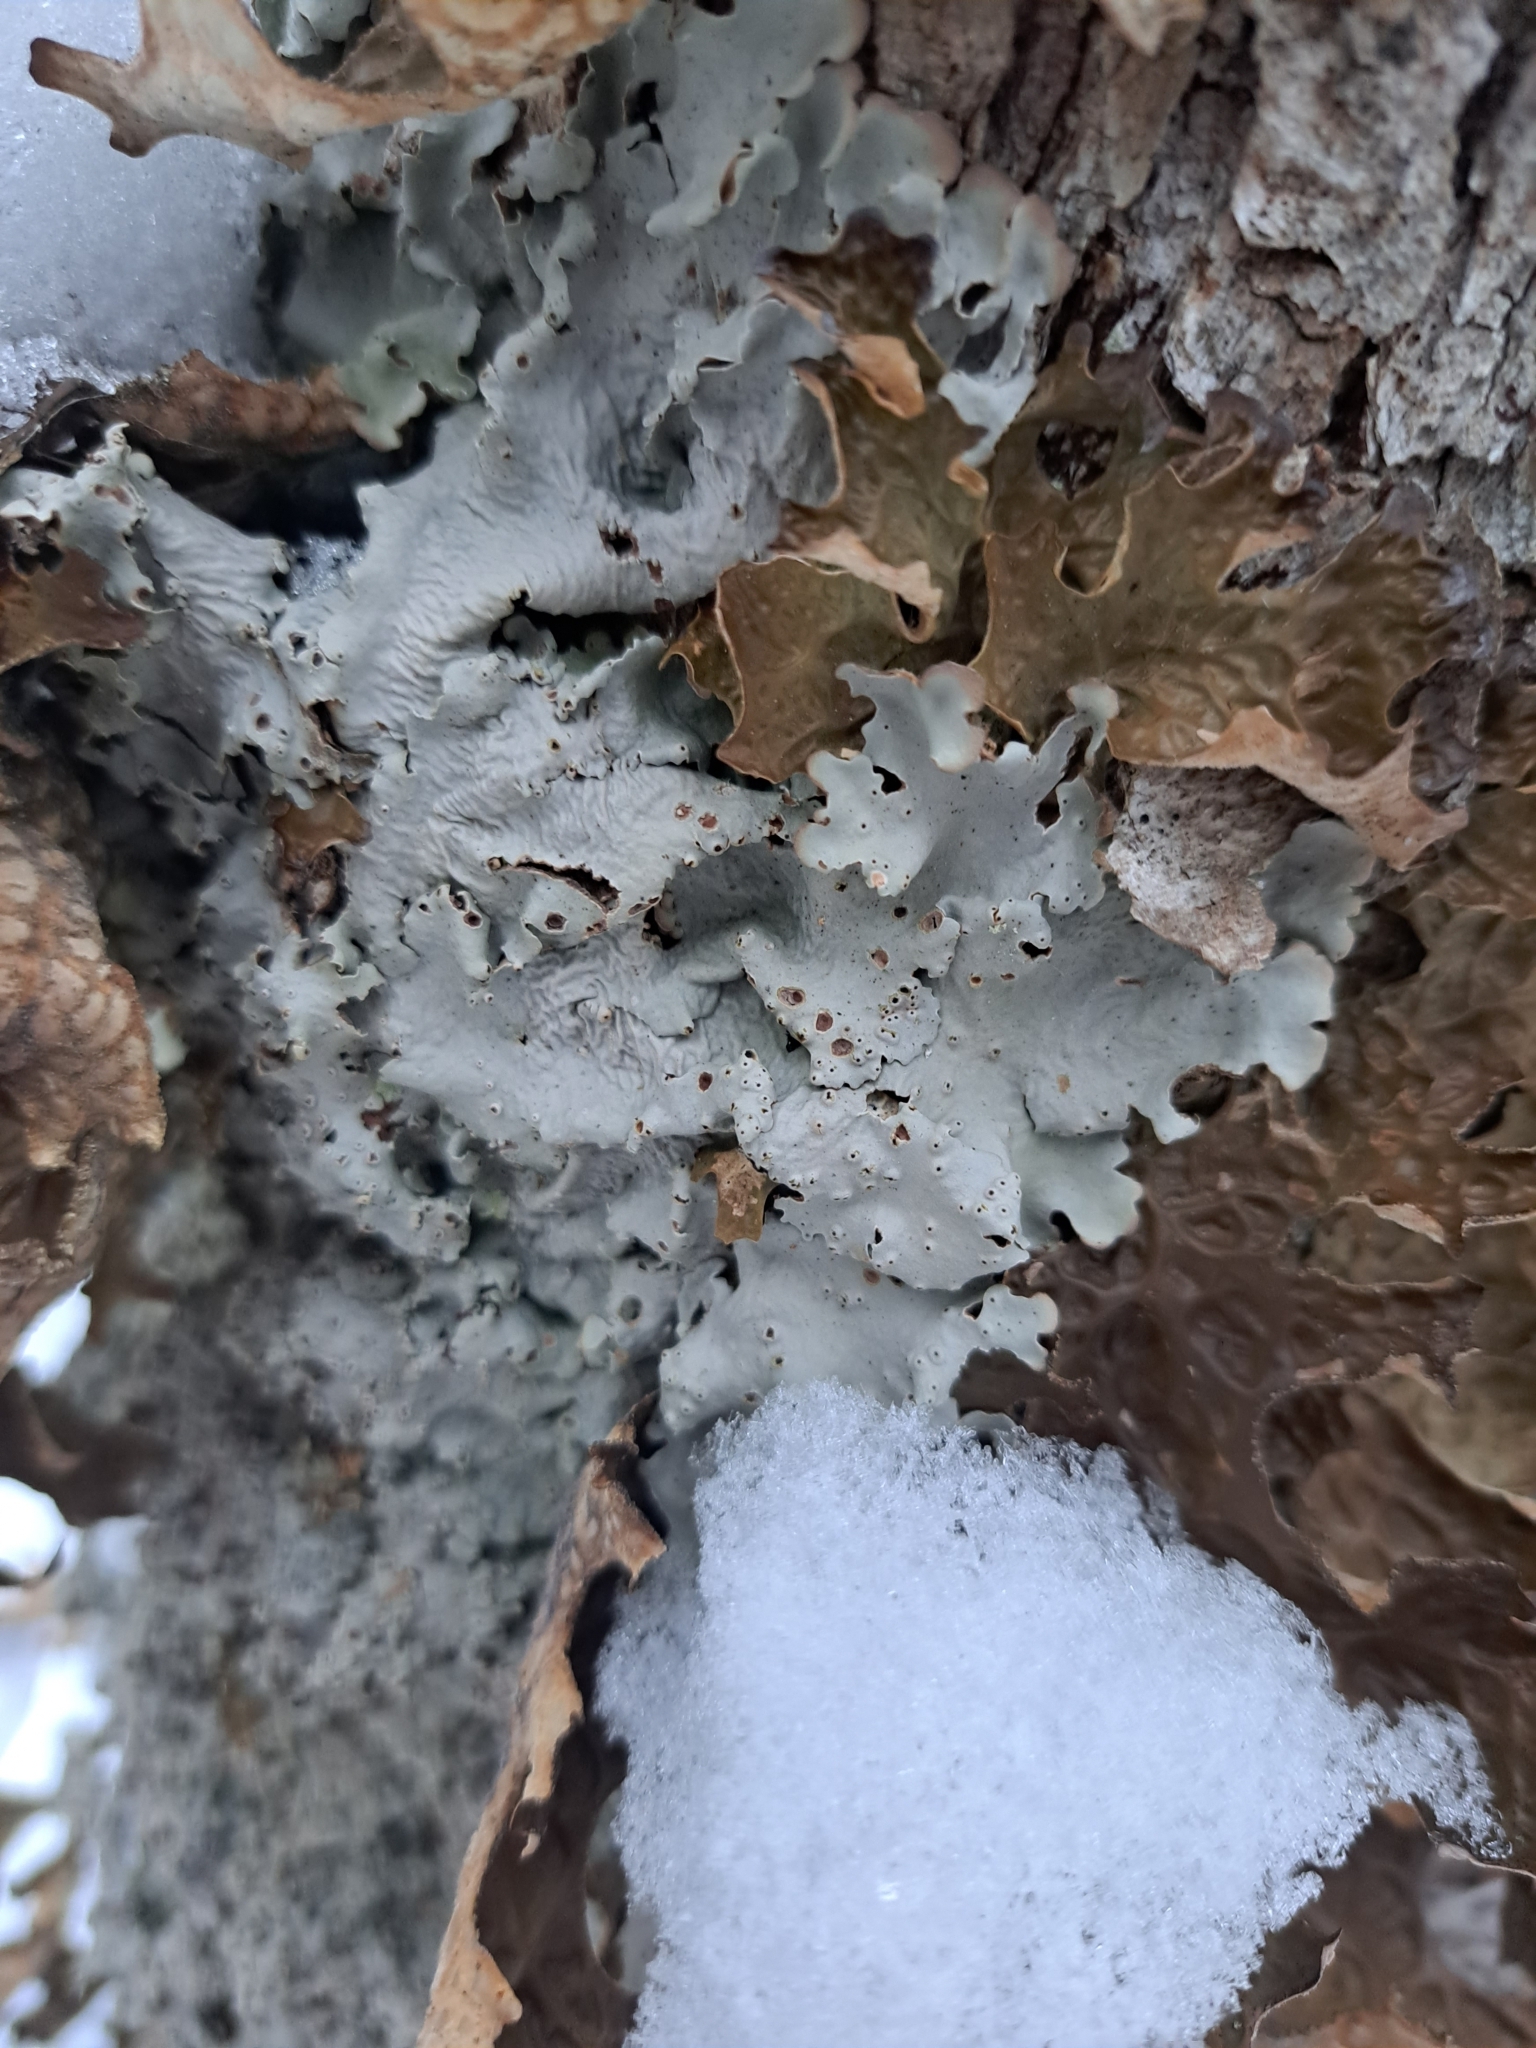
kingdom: Fungi
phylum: Ascomycota
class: Lecanoromycetes
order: Peltigerales
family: Lobariaceae
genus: Ricasolia
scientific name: Ricasolia quercizans
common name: Smooth lungwort
